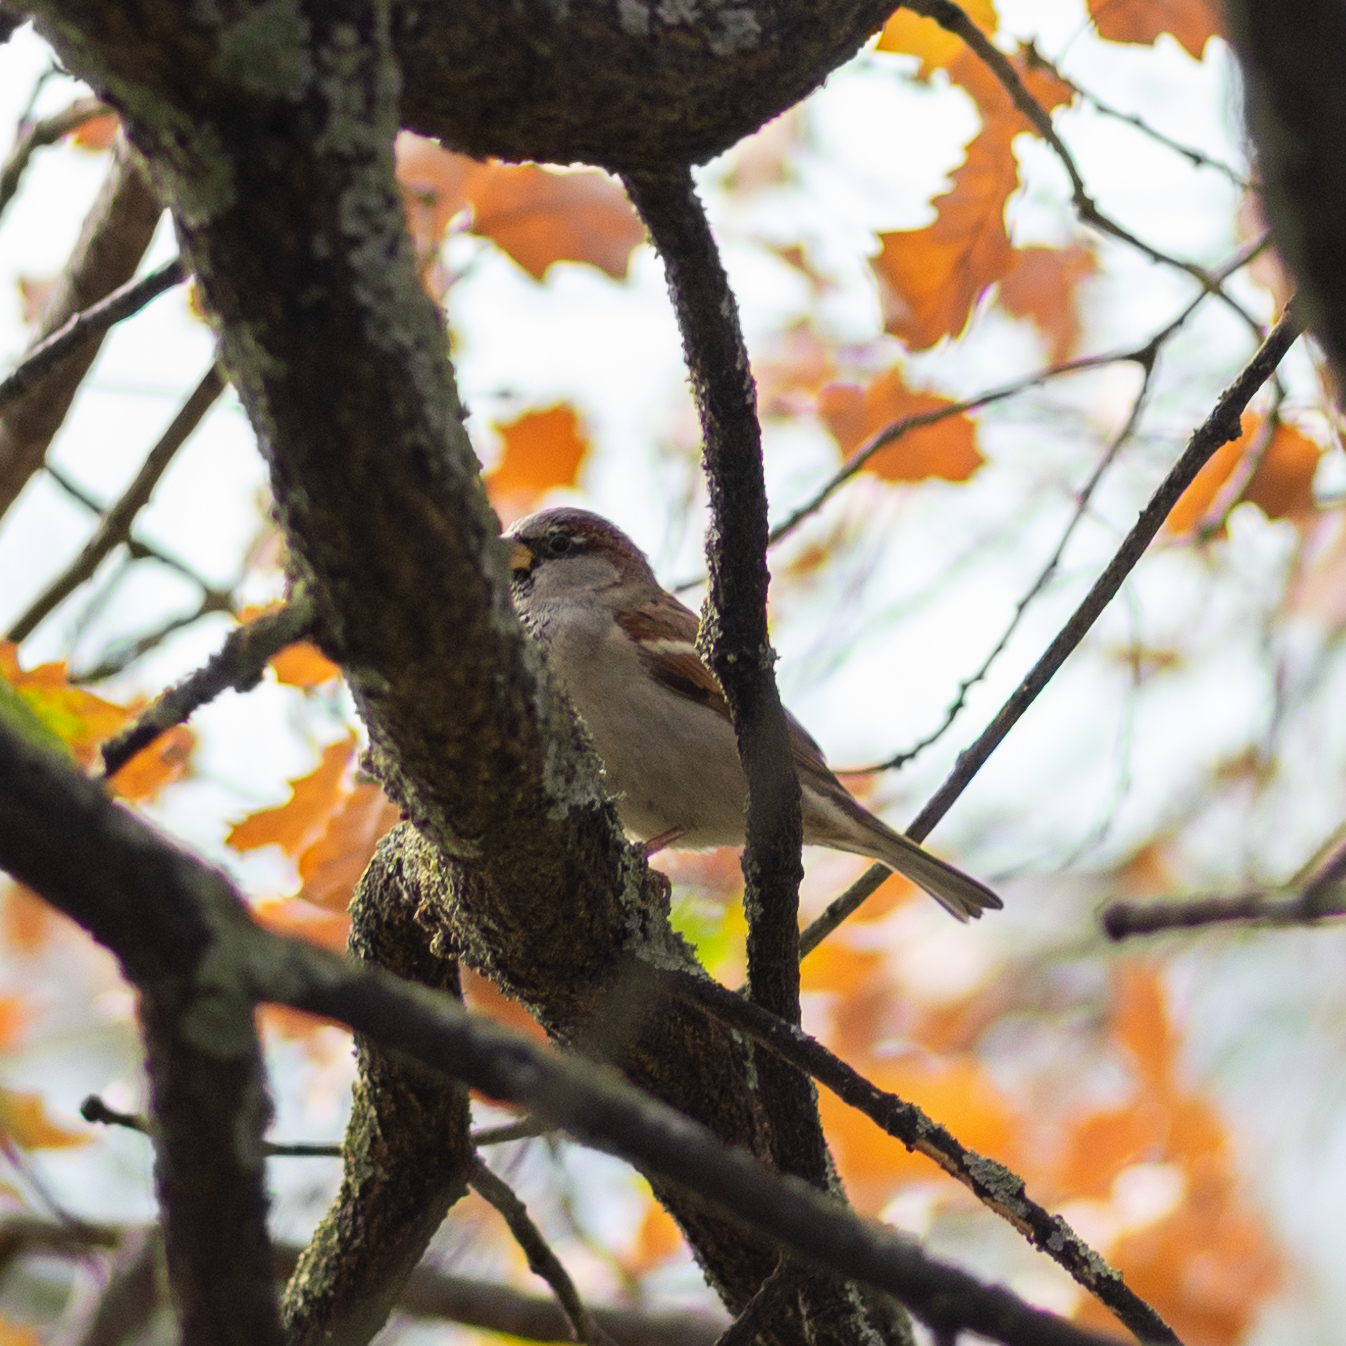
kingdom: Animalia
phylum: Chordata
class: Aves
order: Passeriformes
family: Passeridae
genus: Passer
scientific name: Passer domesticus
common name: House sparrow
